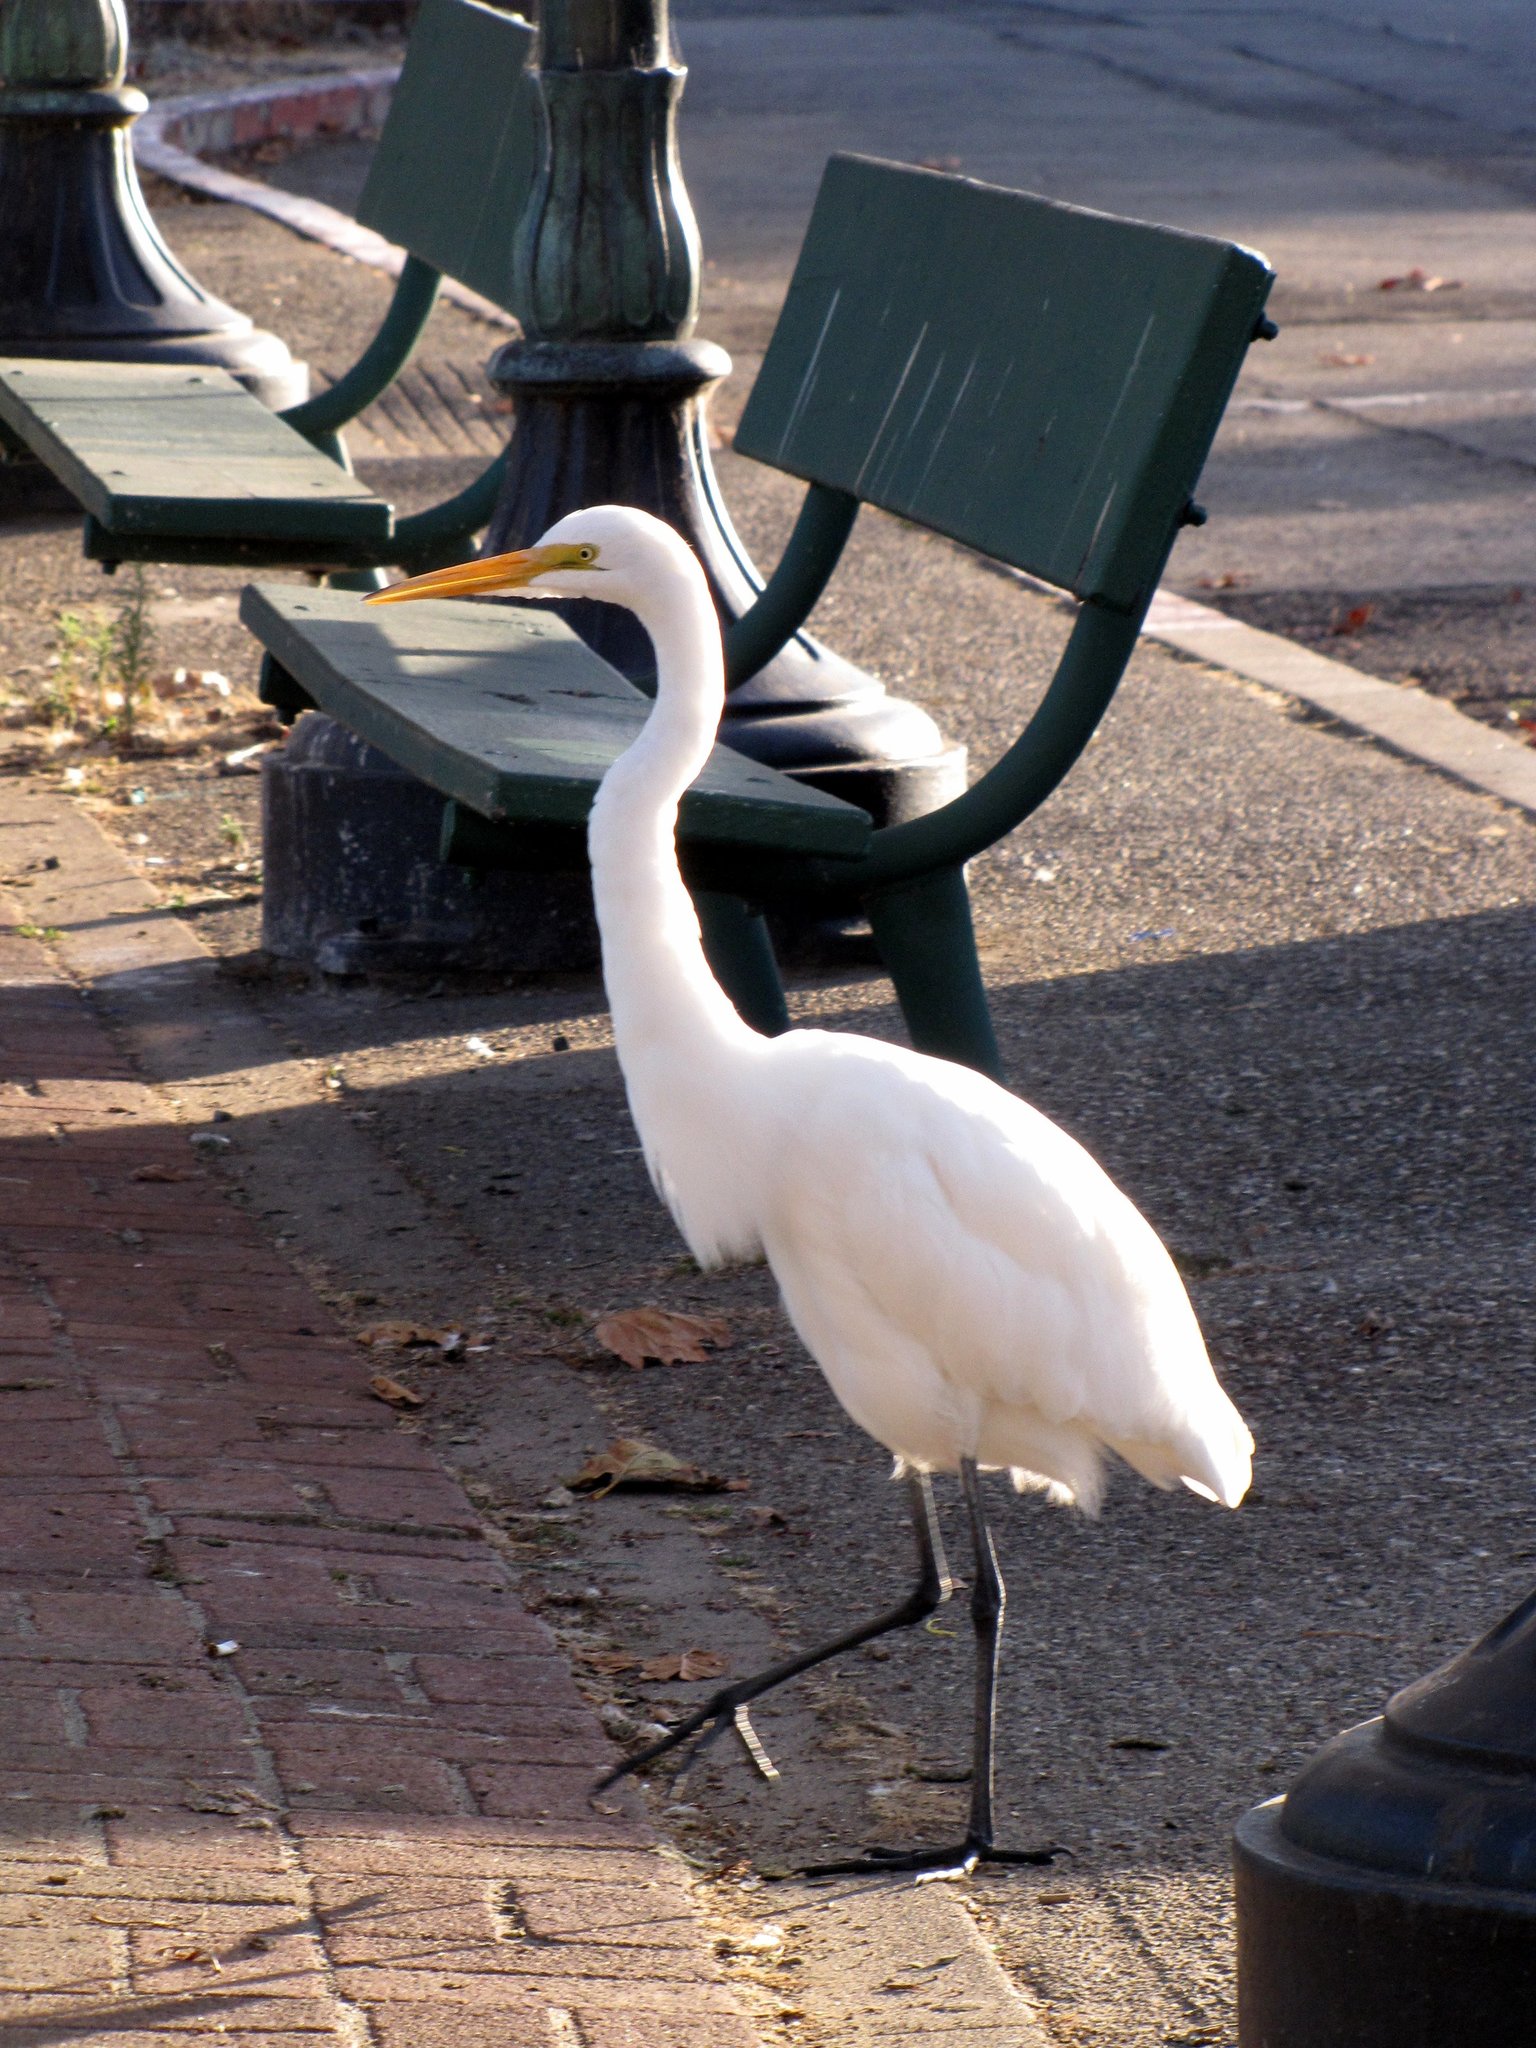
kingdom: Animalia
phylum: Chordata
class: Aves
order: Pelecaniformes
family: Ardeidae
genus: Ardea
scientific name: Ardea alba
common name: Great egret
